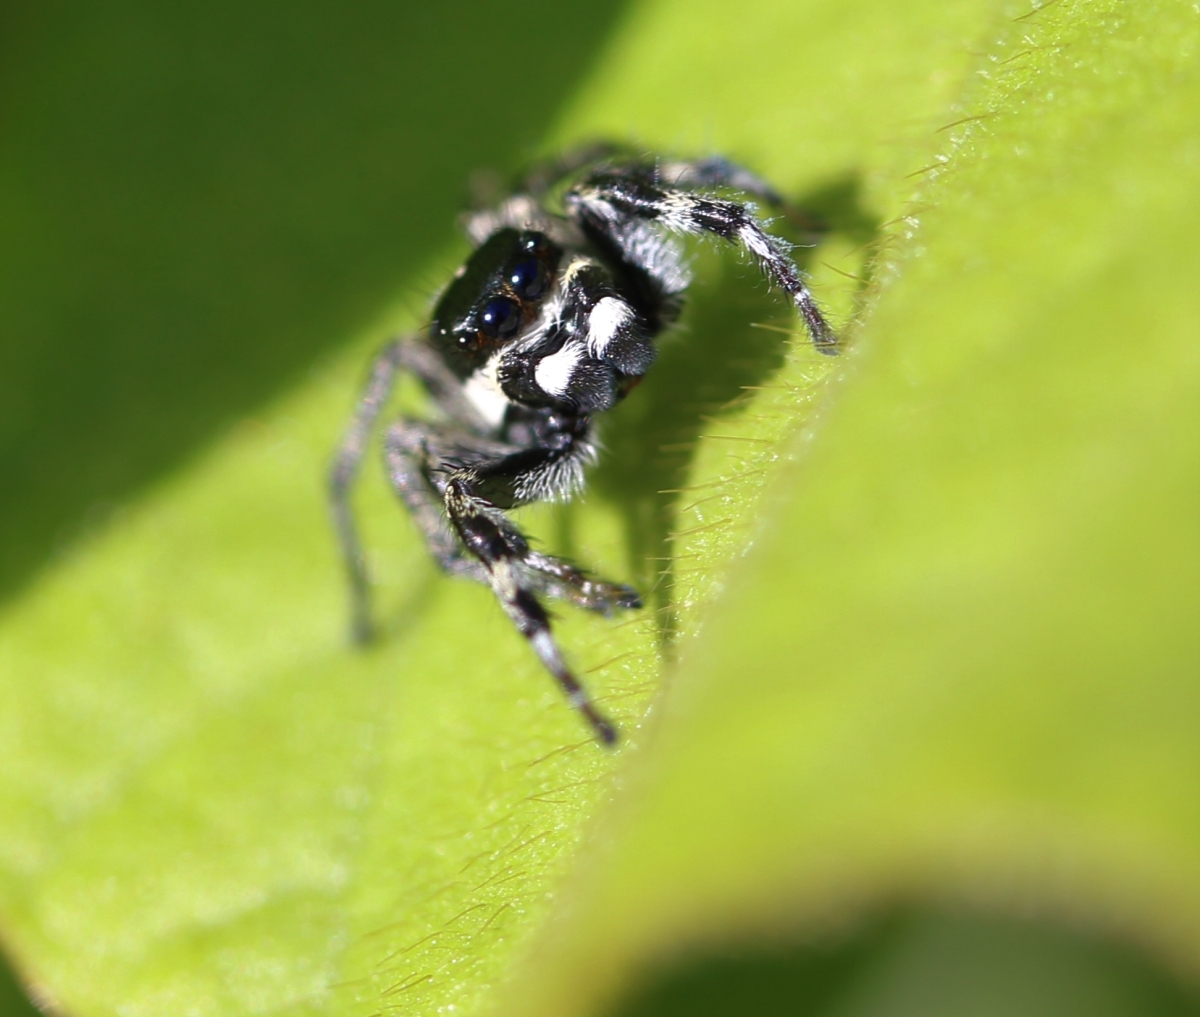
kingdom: Animalia
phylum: Arthropoda
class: Arachnida
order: Araneae
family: Salticidae
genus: Phiale
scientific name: Phiale gratiosa
